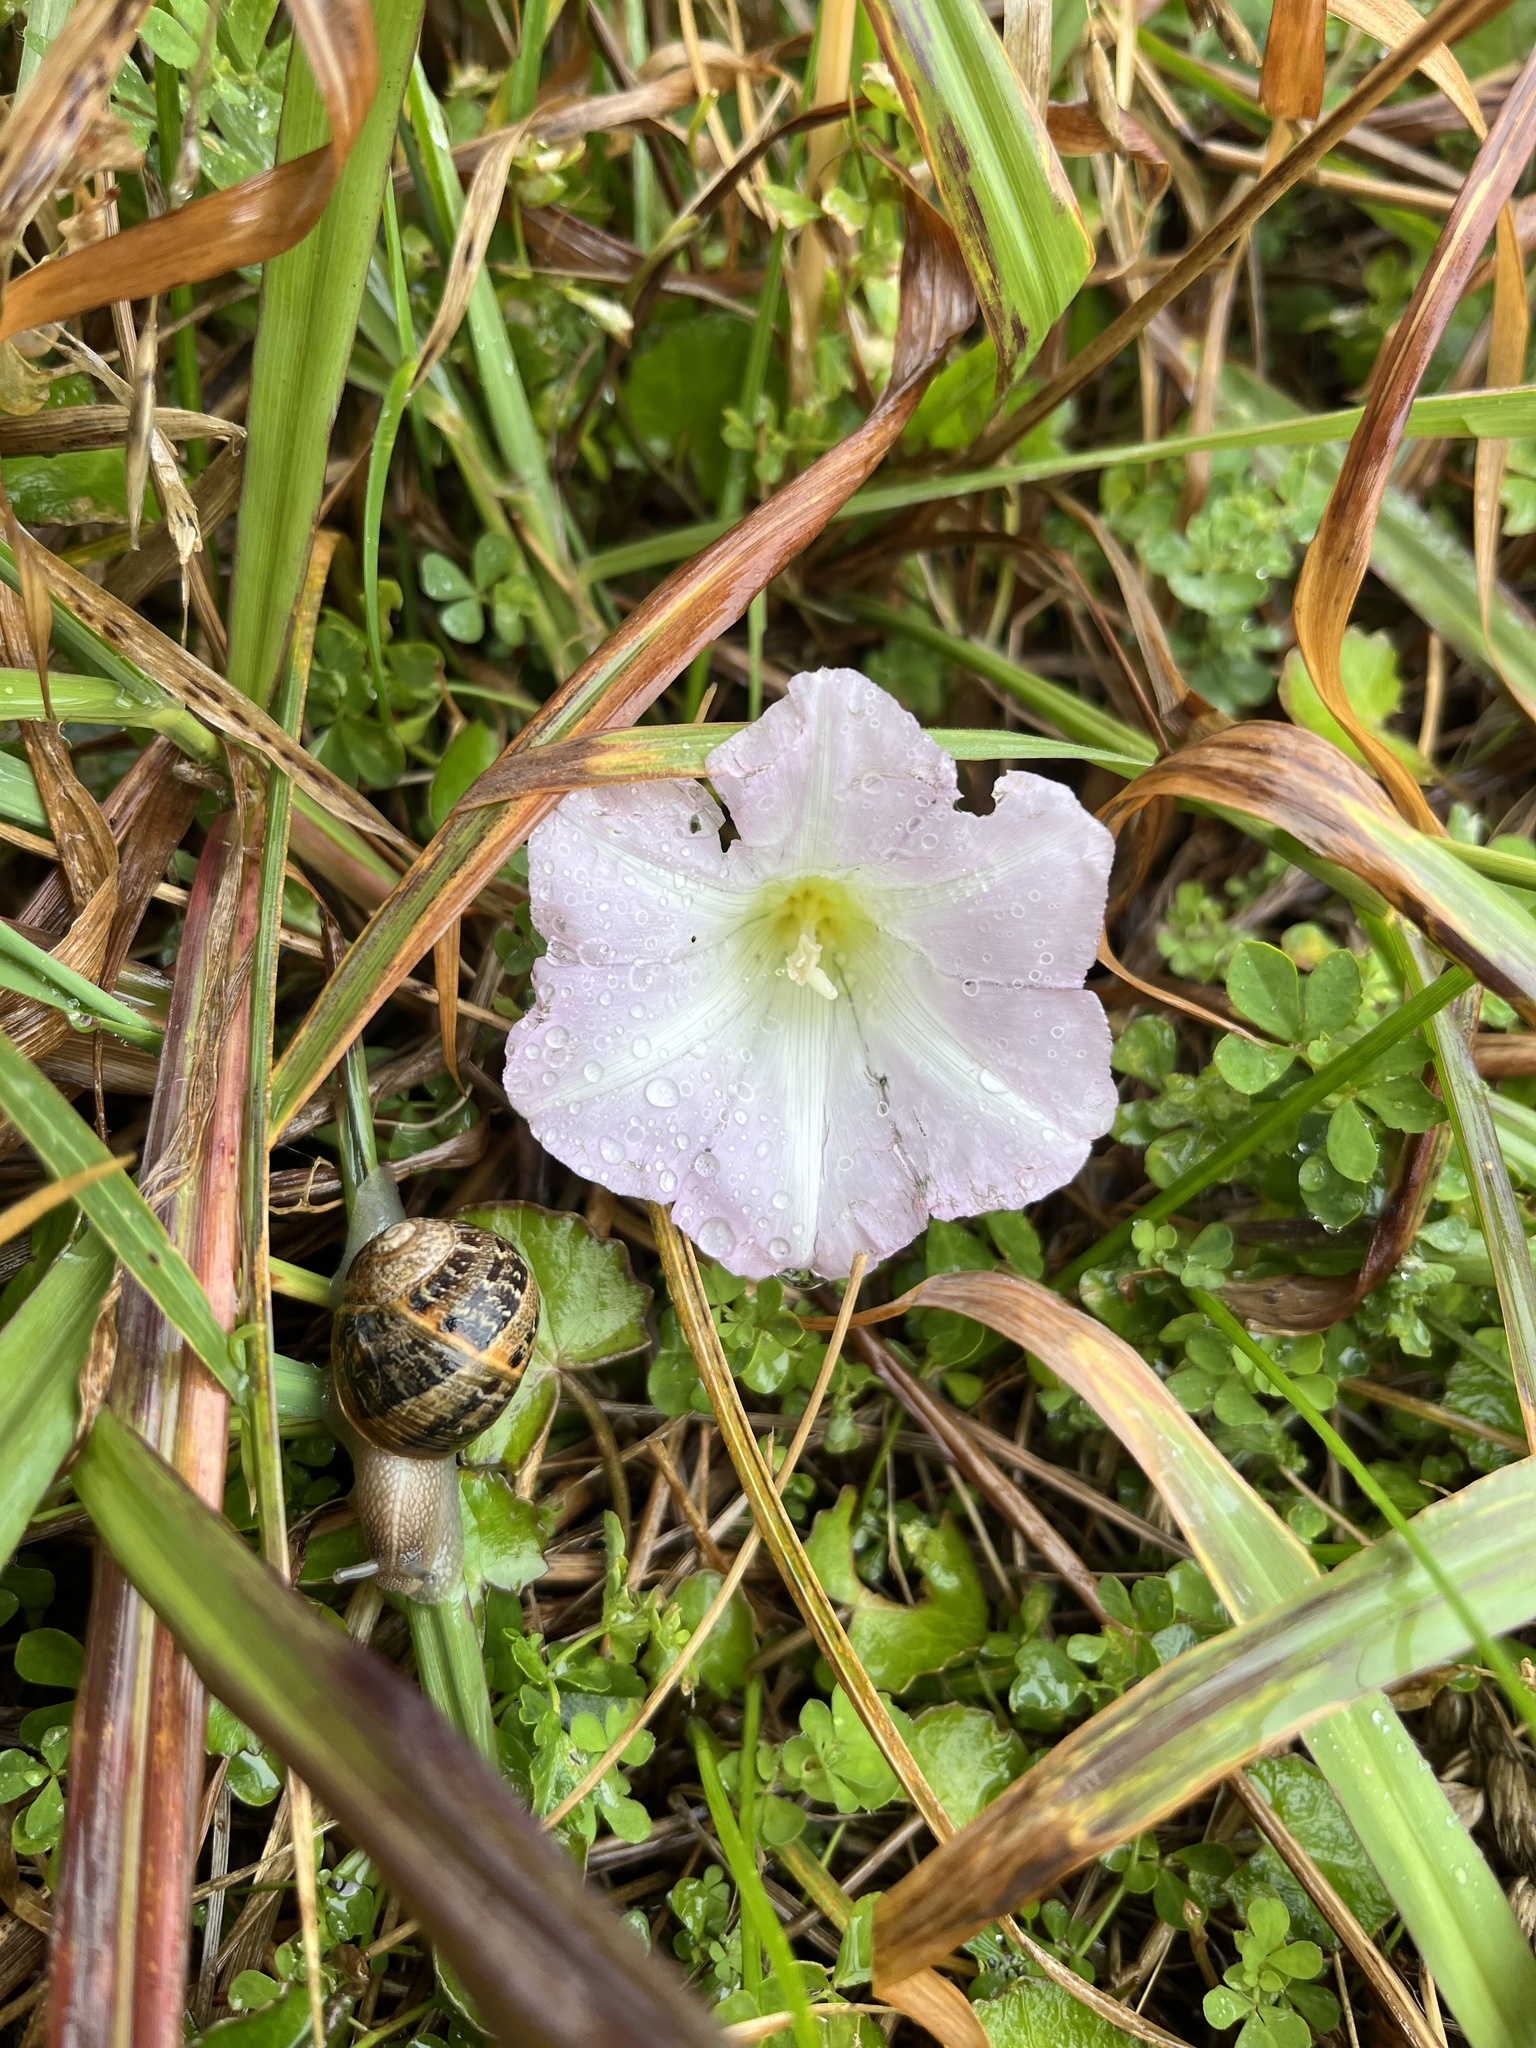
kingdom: Plantae
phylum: Tracheophyta
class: Magnoliopsida
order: Solanales
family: Convolvulaceae
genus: Calystegia
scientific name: Calystegia soldanella
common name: Sea bindweed
